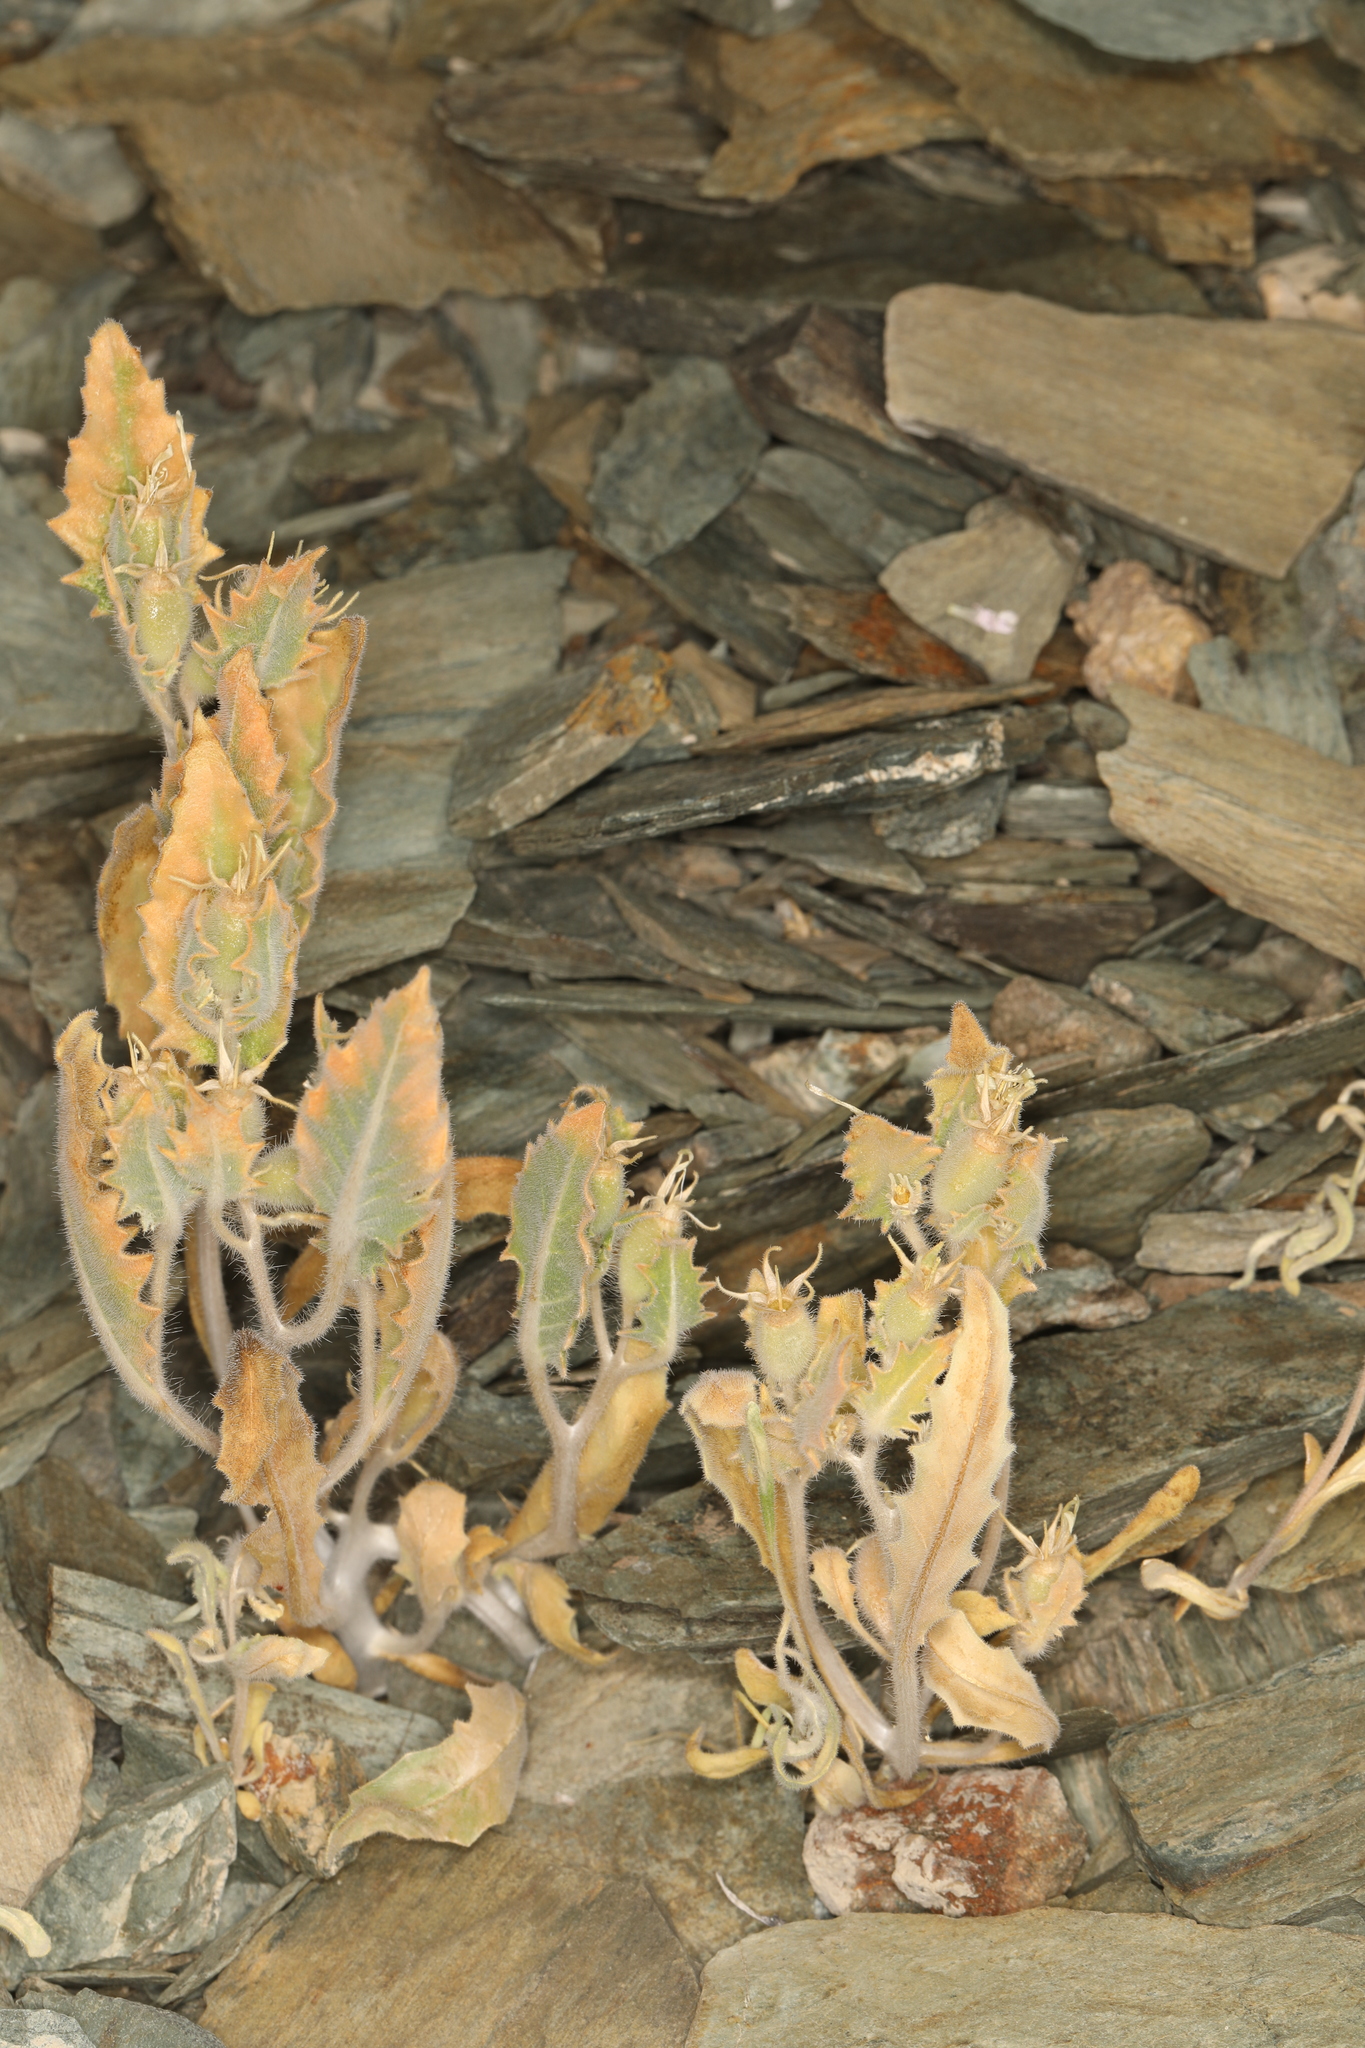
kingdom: Plantae
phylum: Tracheophyta
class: Magnoliopsida
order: Cornales
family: Loasaceae
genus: Mentzelia
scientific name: Mentzelia reflexa
